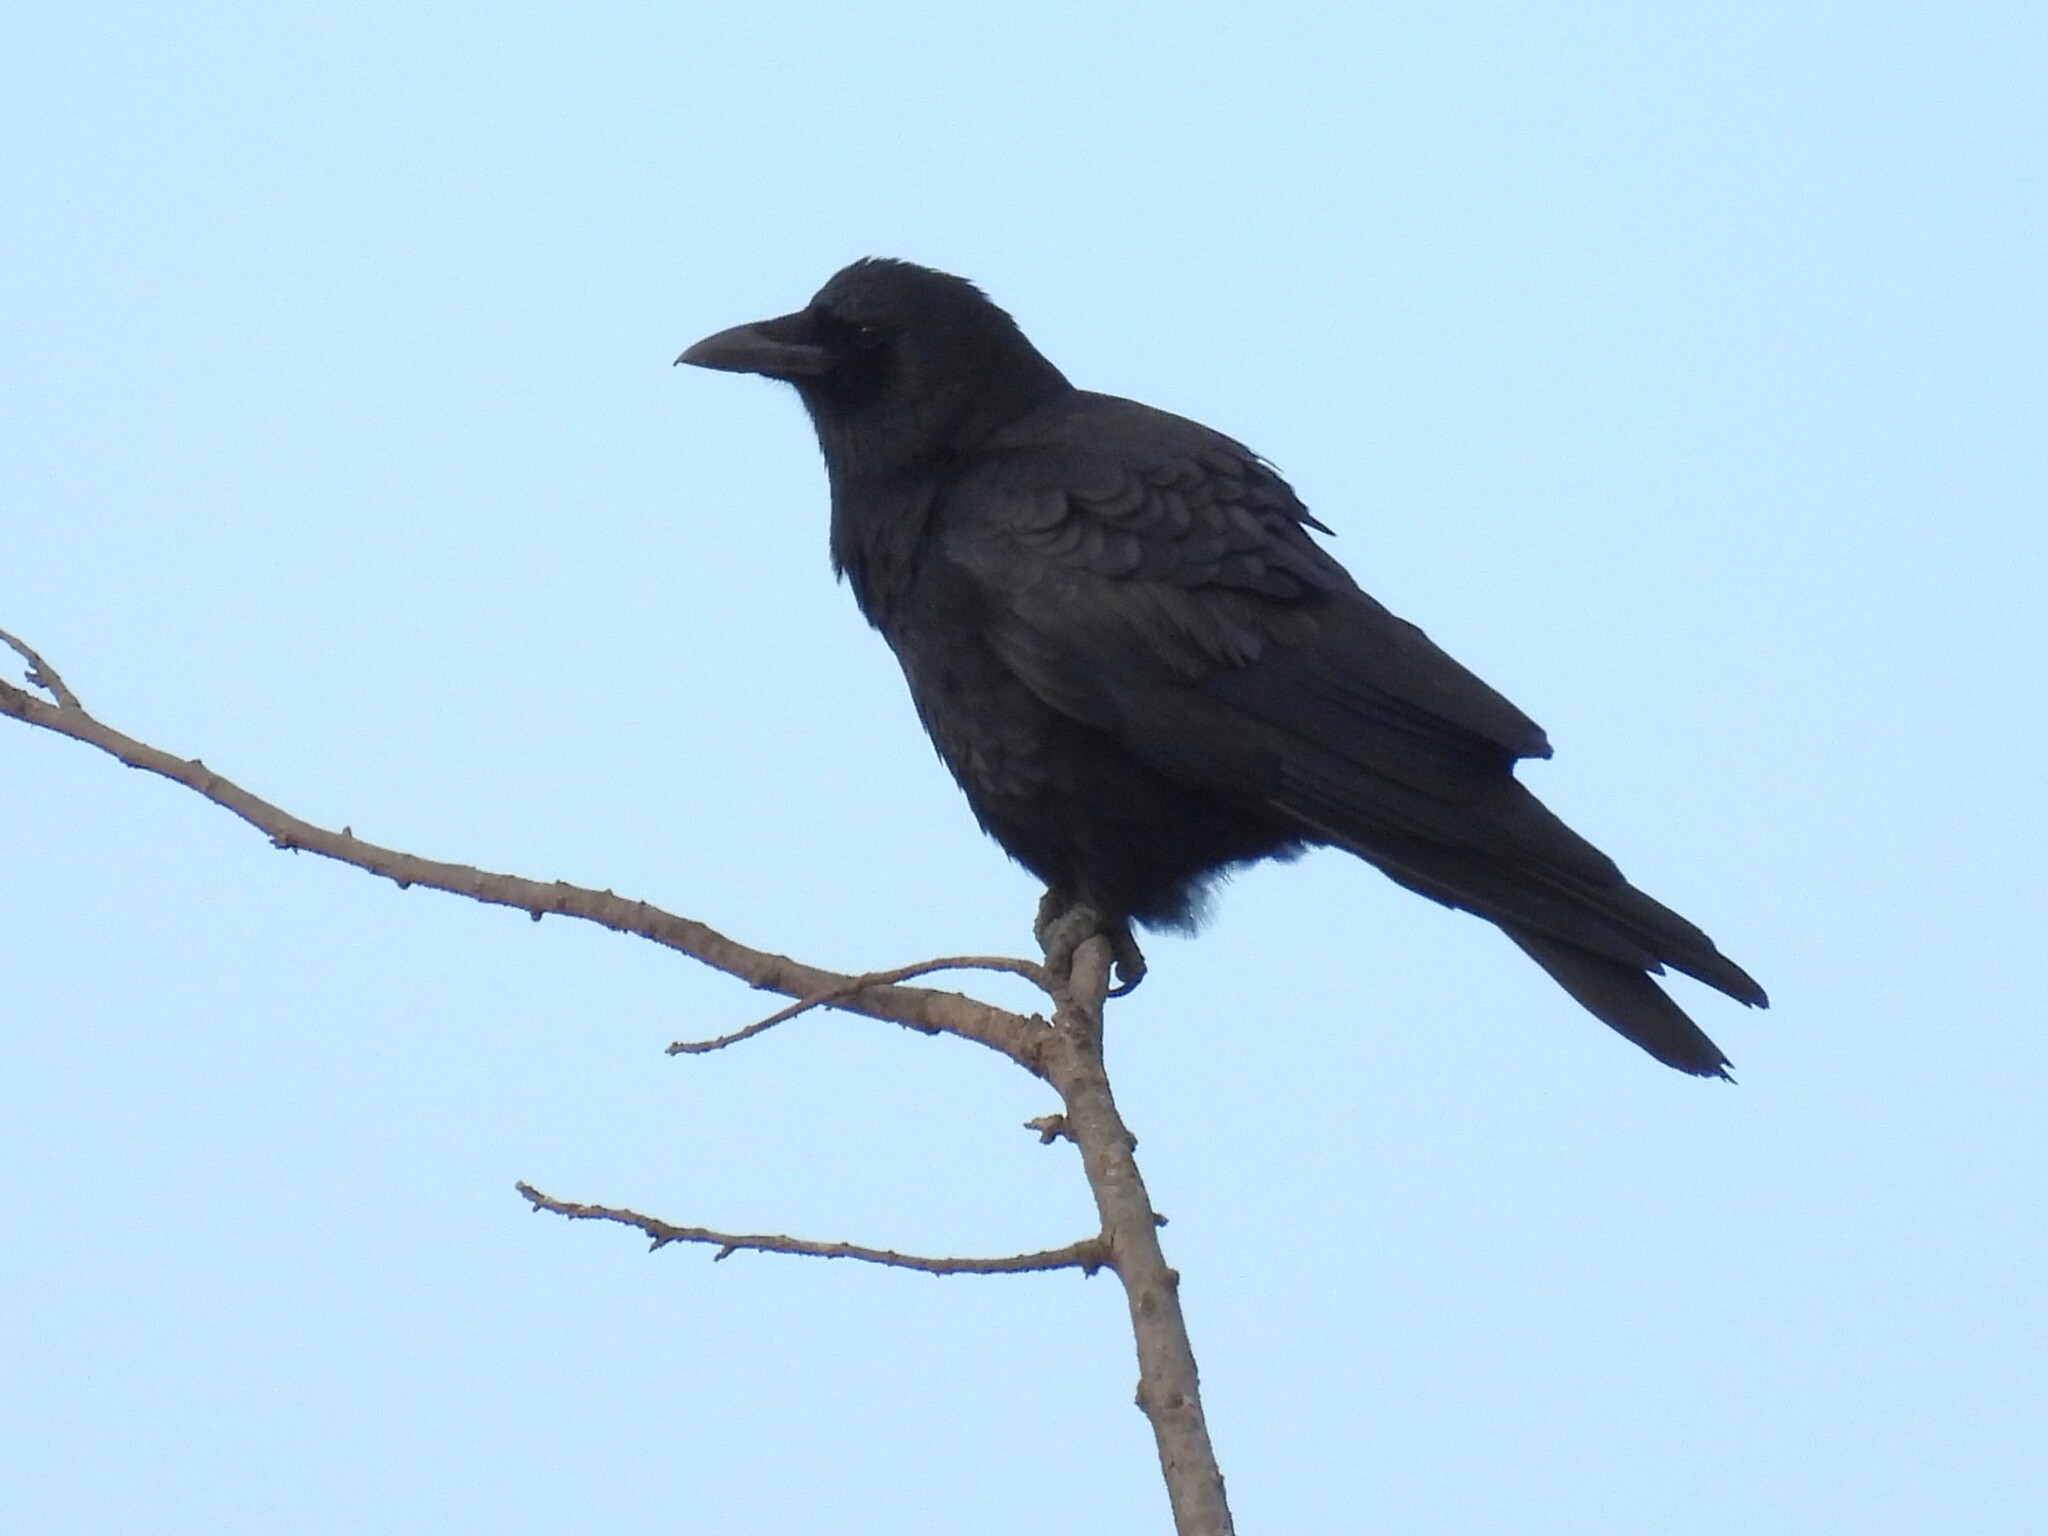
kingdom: Animalia
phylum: Chordata
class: Aves
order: Passeriformes
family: Corvidae
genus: Corvus
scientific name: Corvus brachyrhynchos
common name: American crow
